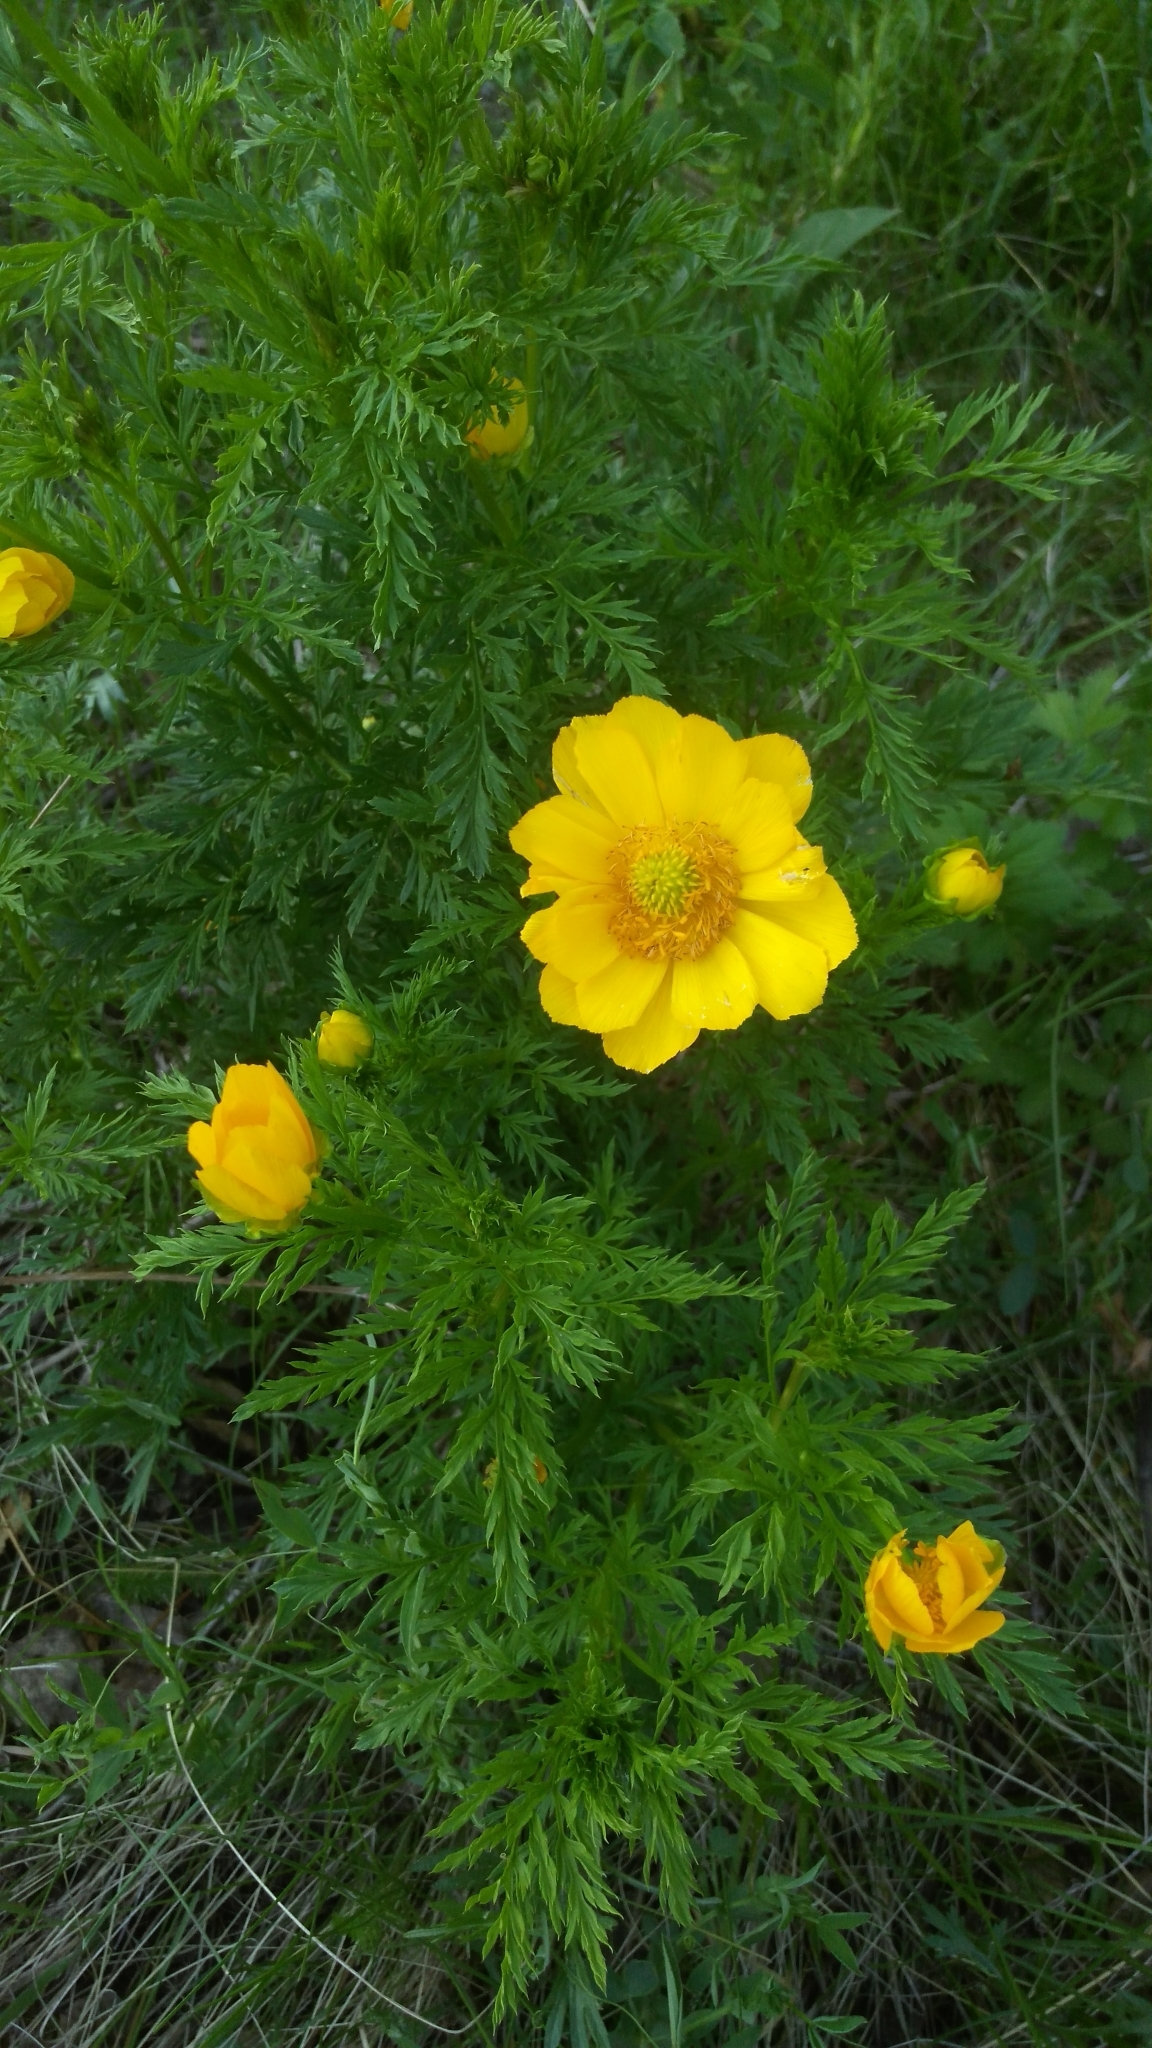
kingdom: Plantae
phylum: Tracheophyta
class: Magnoliopsida
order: Ranunculales
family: Ranunculaceae
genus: Adonis
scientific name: Adonis
